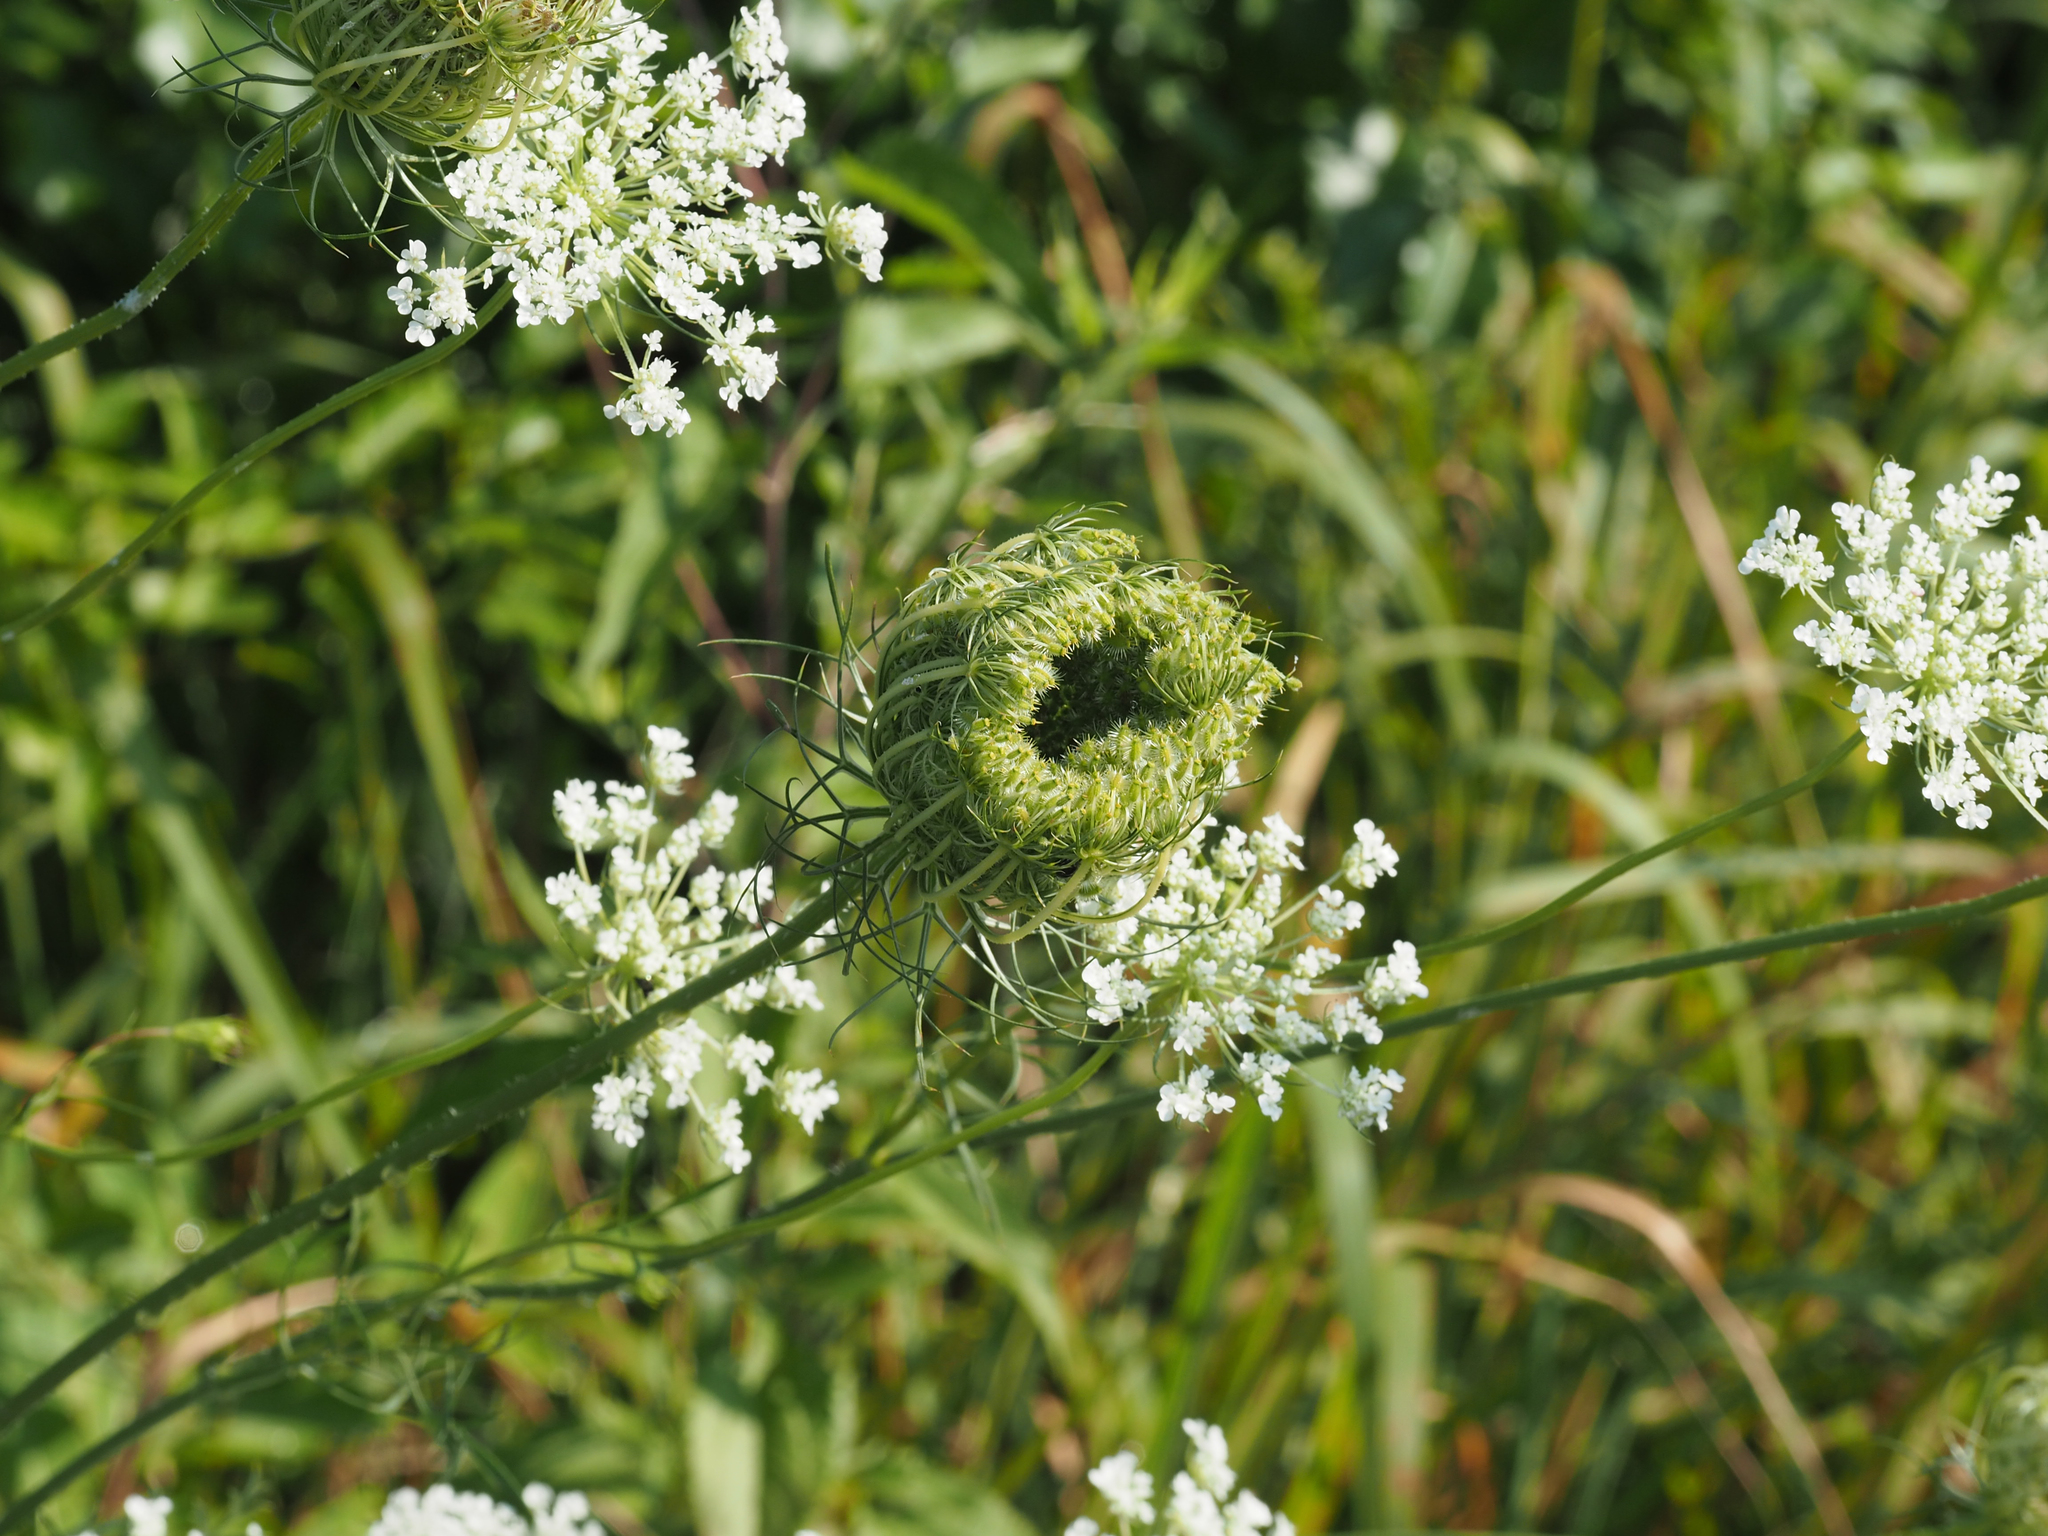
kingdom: Plantae
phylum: Tracheophyta
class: Magnoliopsida
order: Apiales
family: Apiaceae
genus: Daucus
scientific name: Daucus carota
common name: Wild carrot
